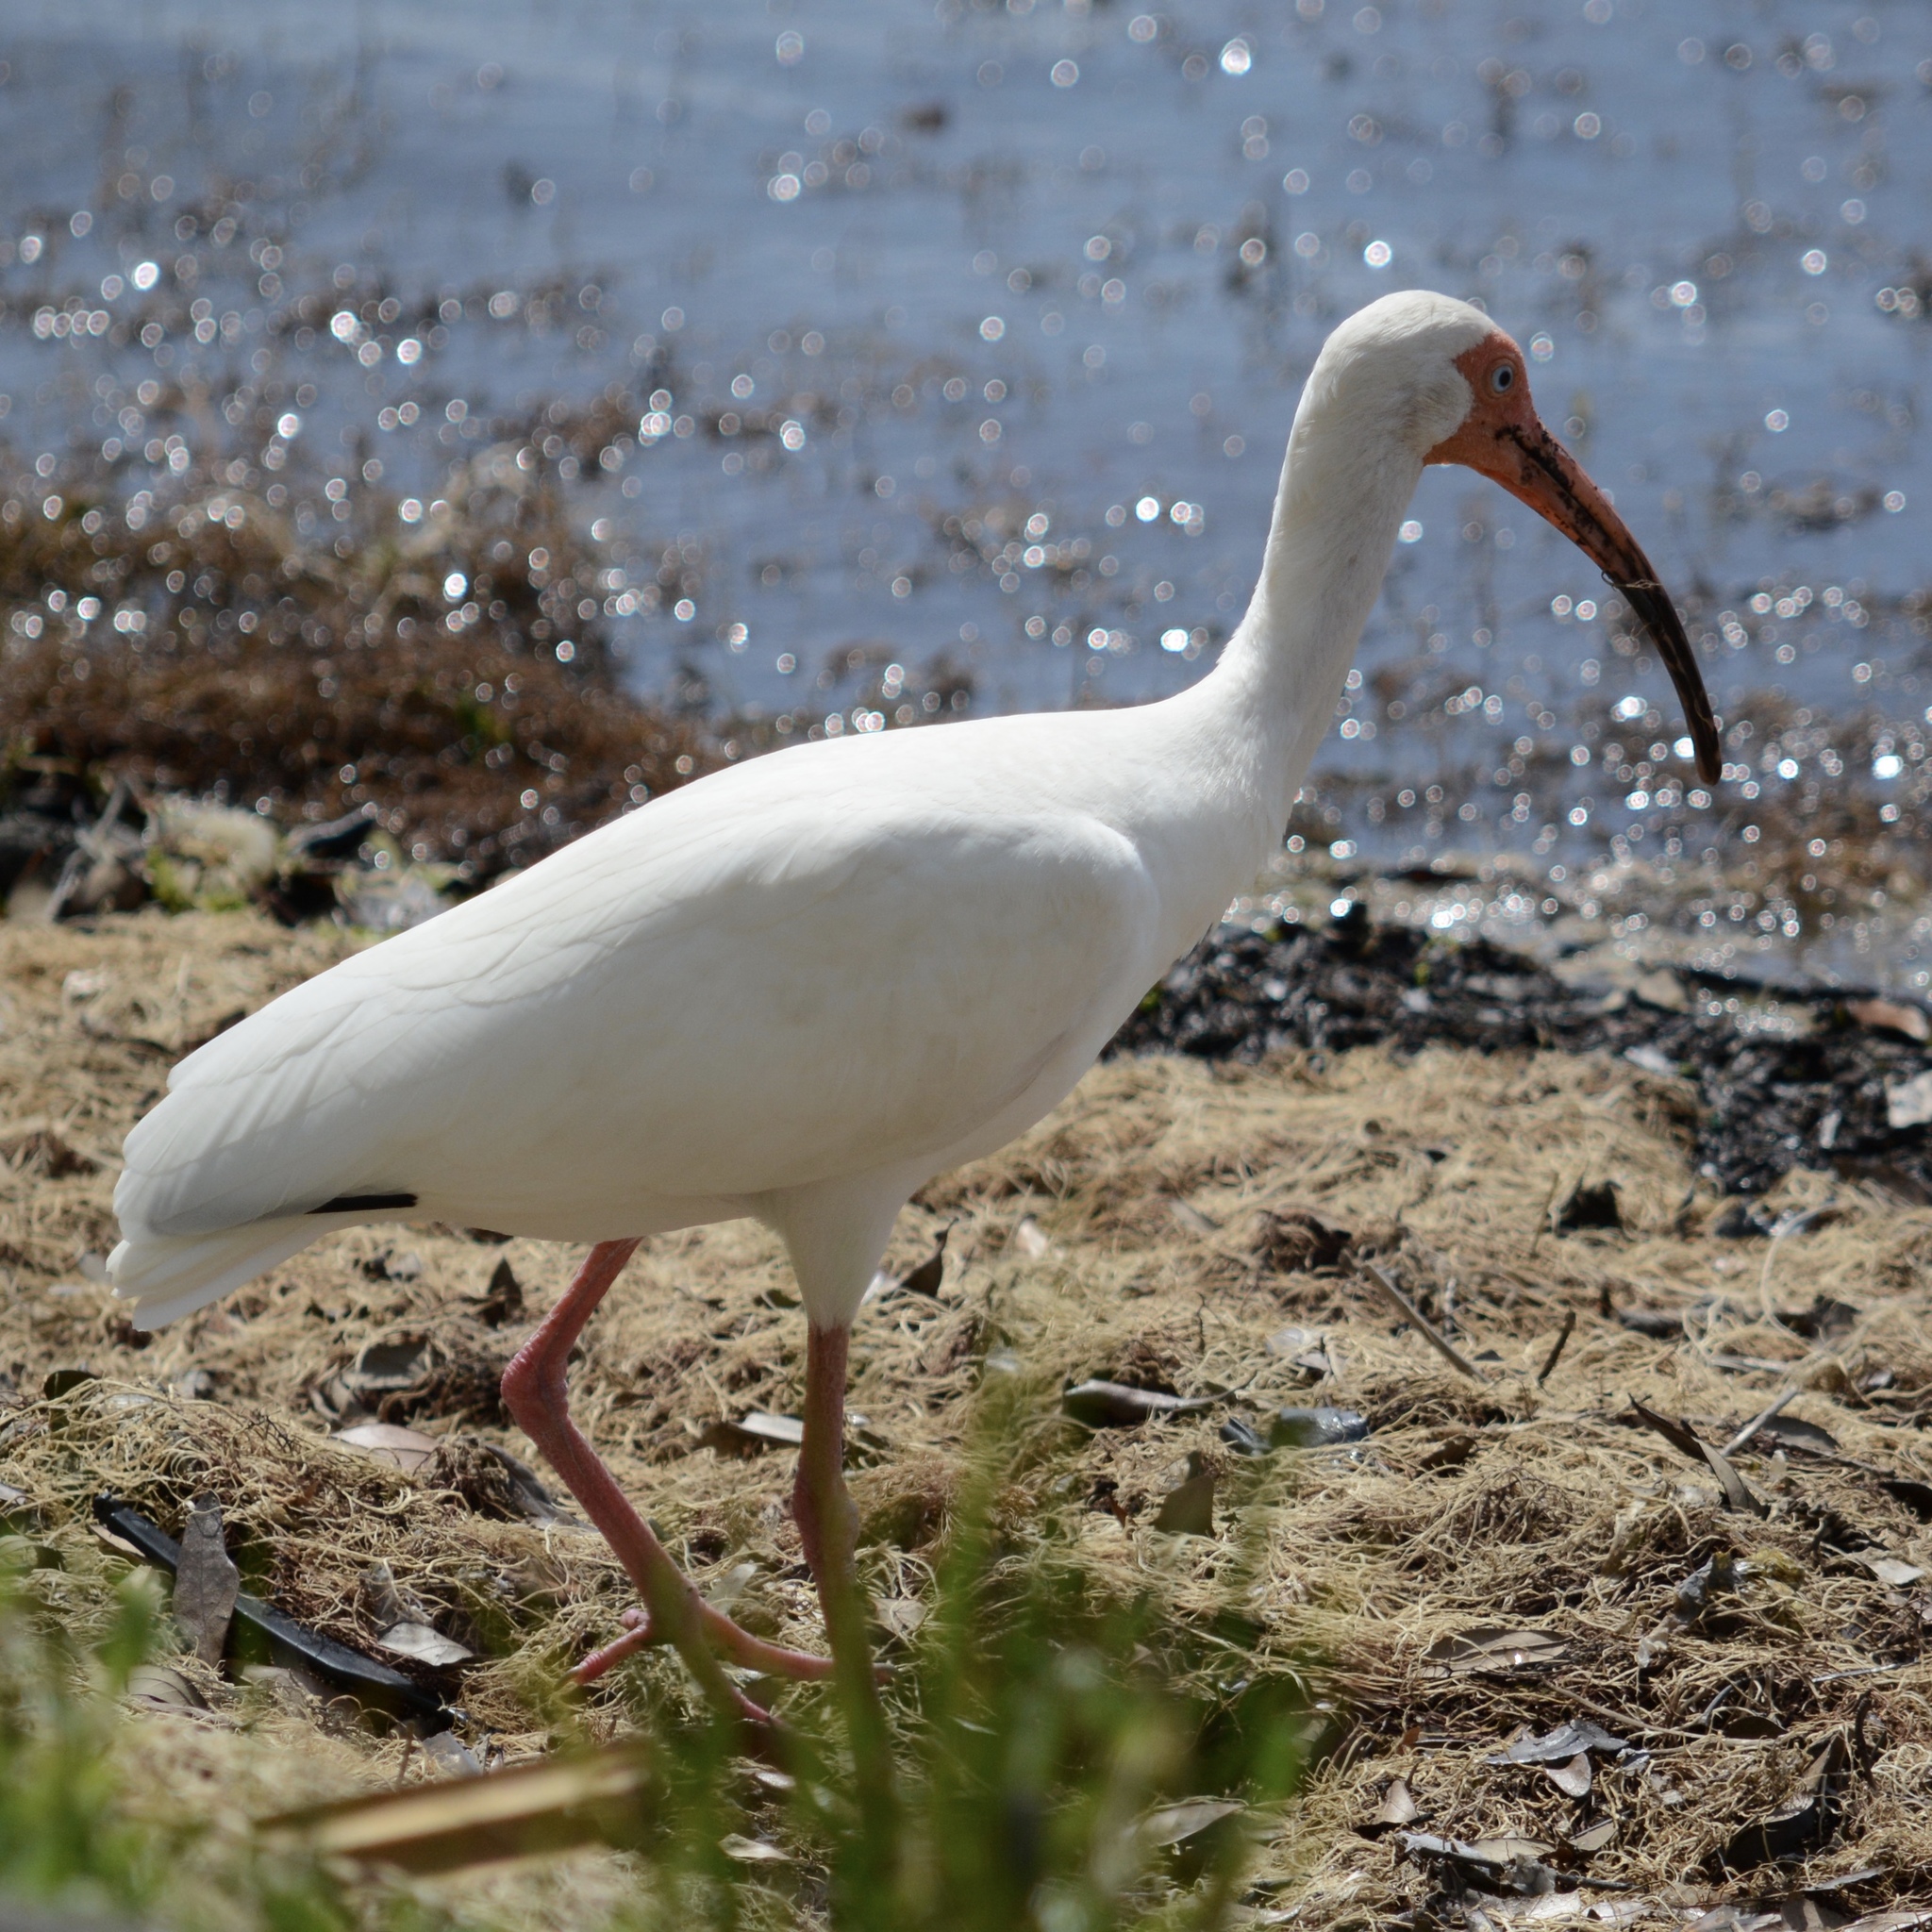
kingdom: Animalia
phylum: Chordata
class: Aves
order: Pelecaniformes
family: Threskiornithidae
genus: Eudocimus
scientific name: Eudocimus albus
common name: White ibis
